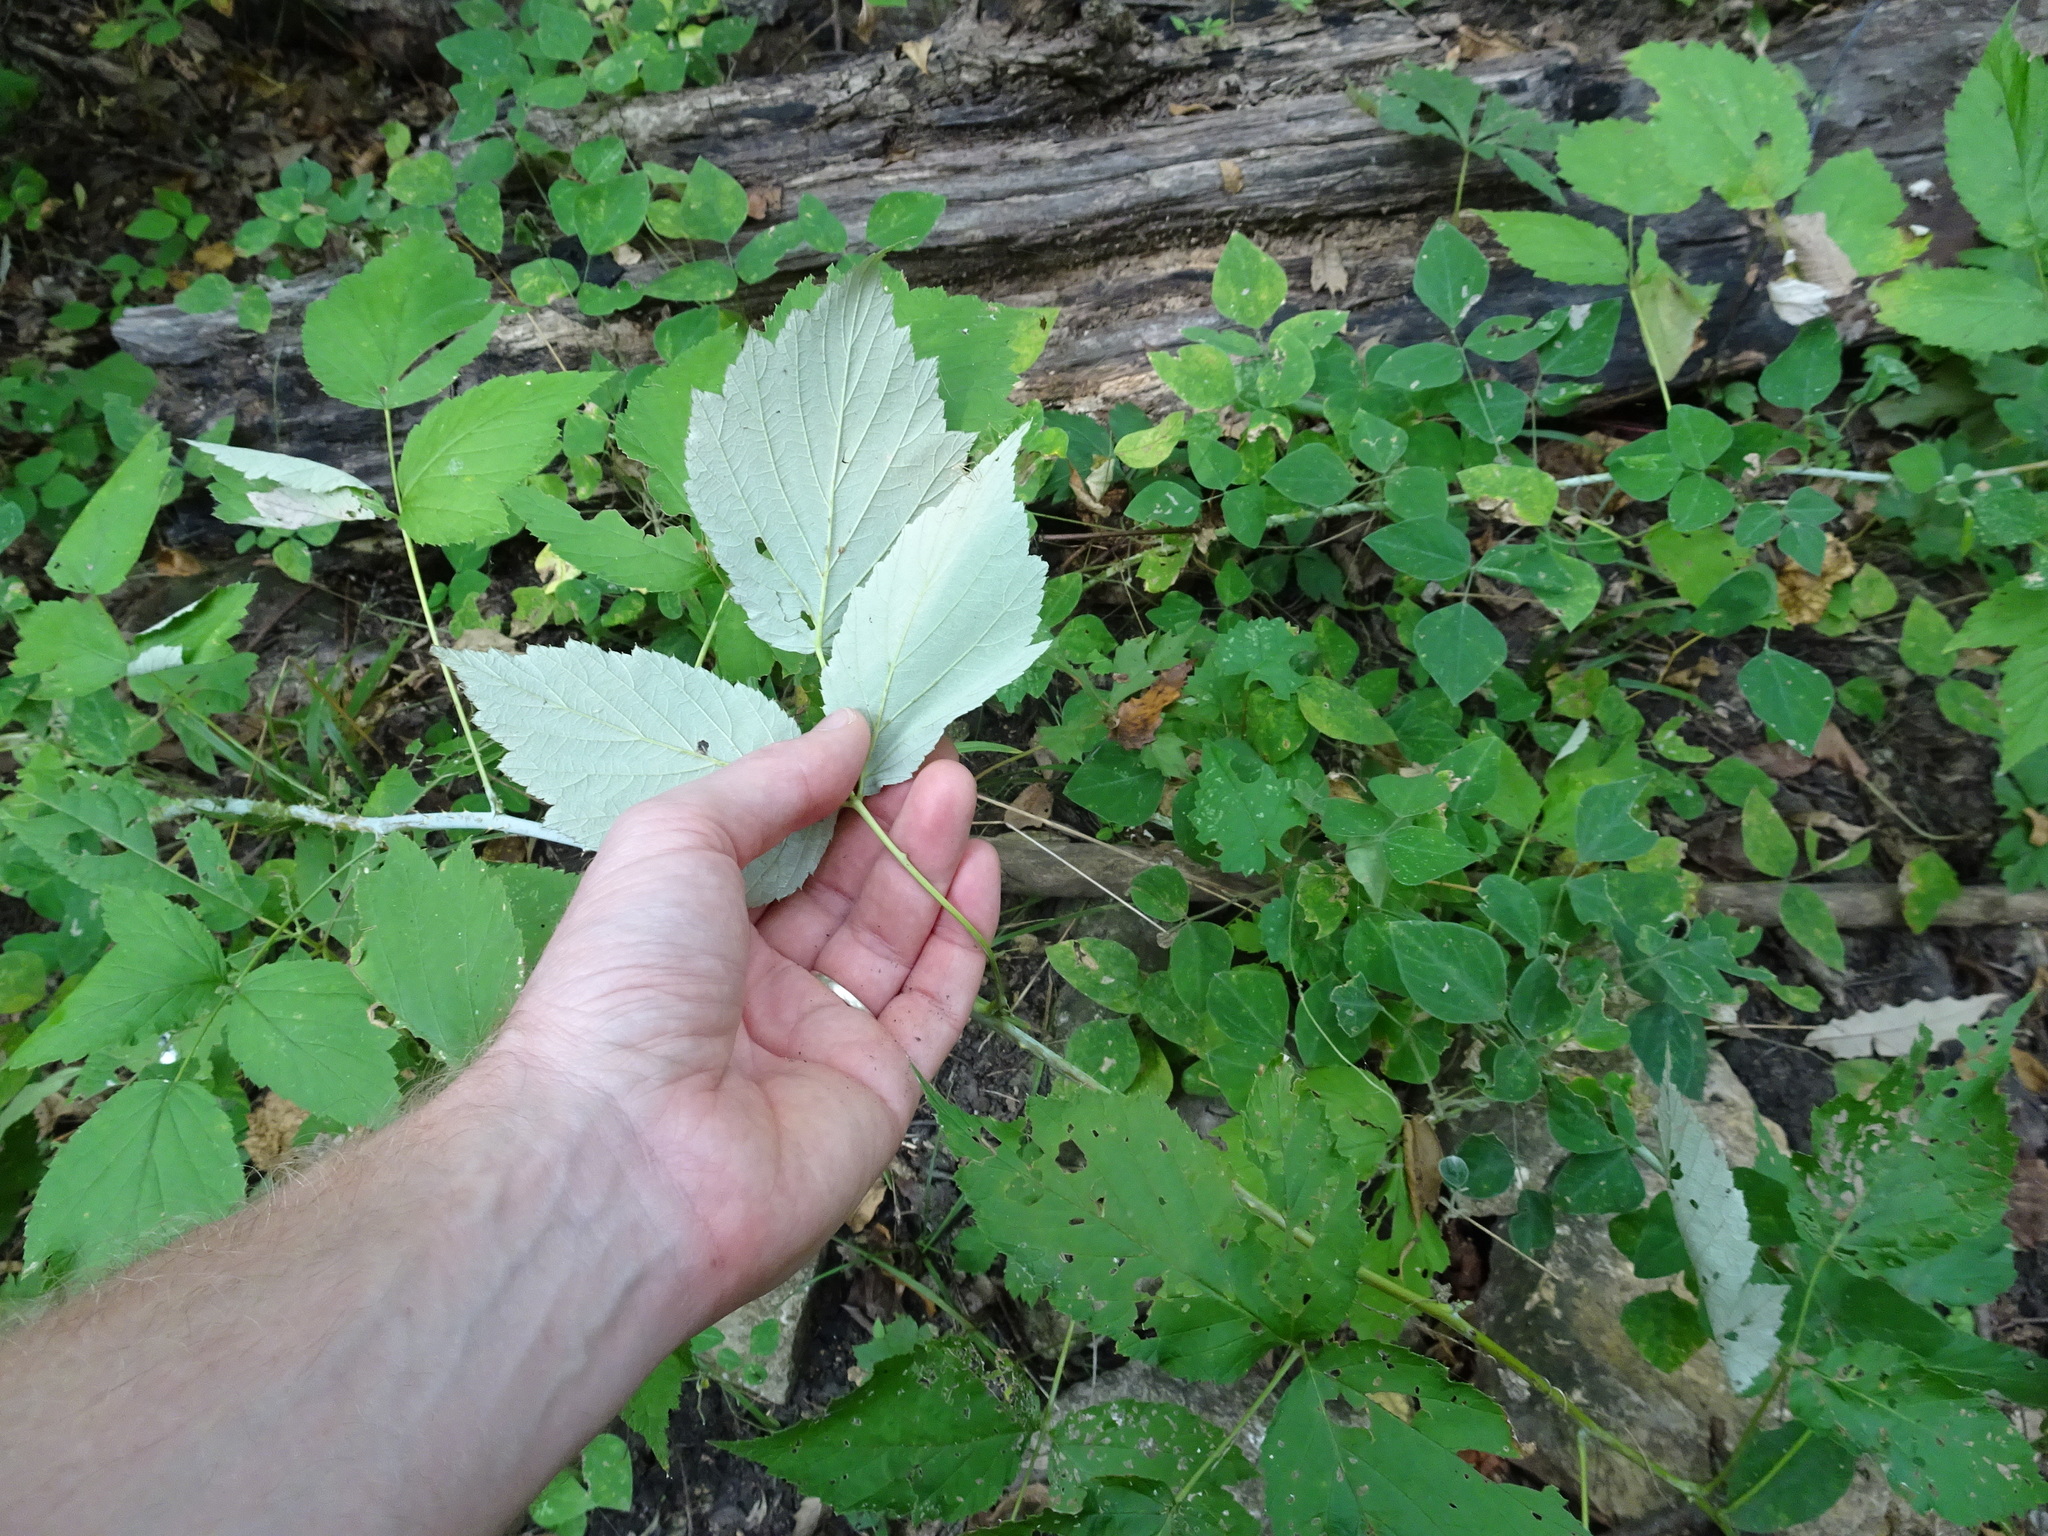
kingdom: Plantae
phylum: Tracheophyta
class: Magnoliopsida
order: Rosales
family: Rosaceae
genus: Rubus
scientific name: Rubus occidentalis
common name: Black raspberry
